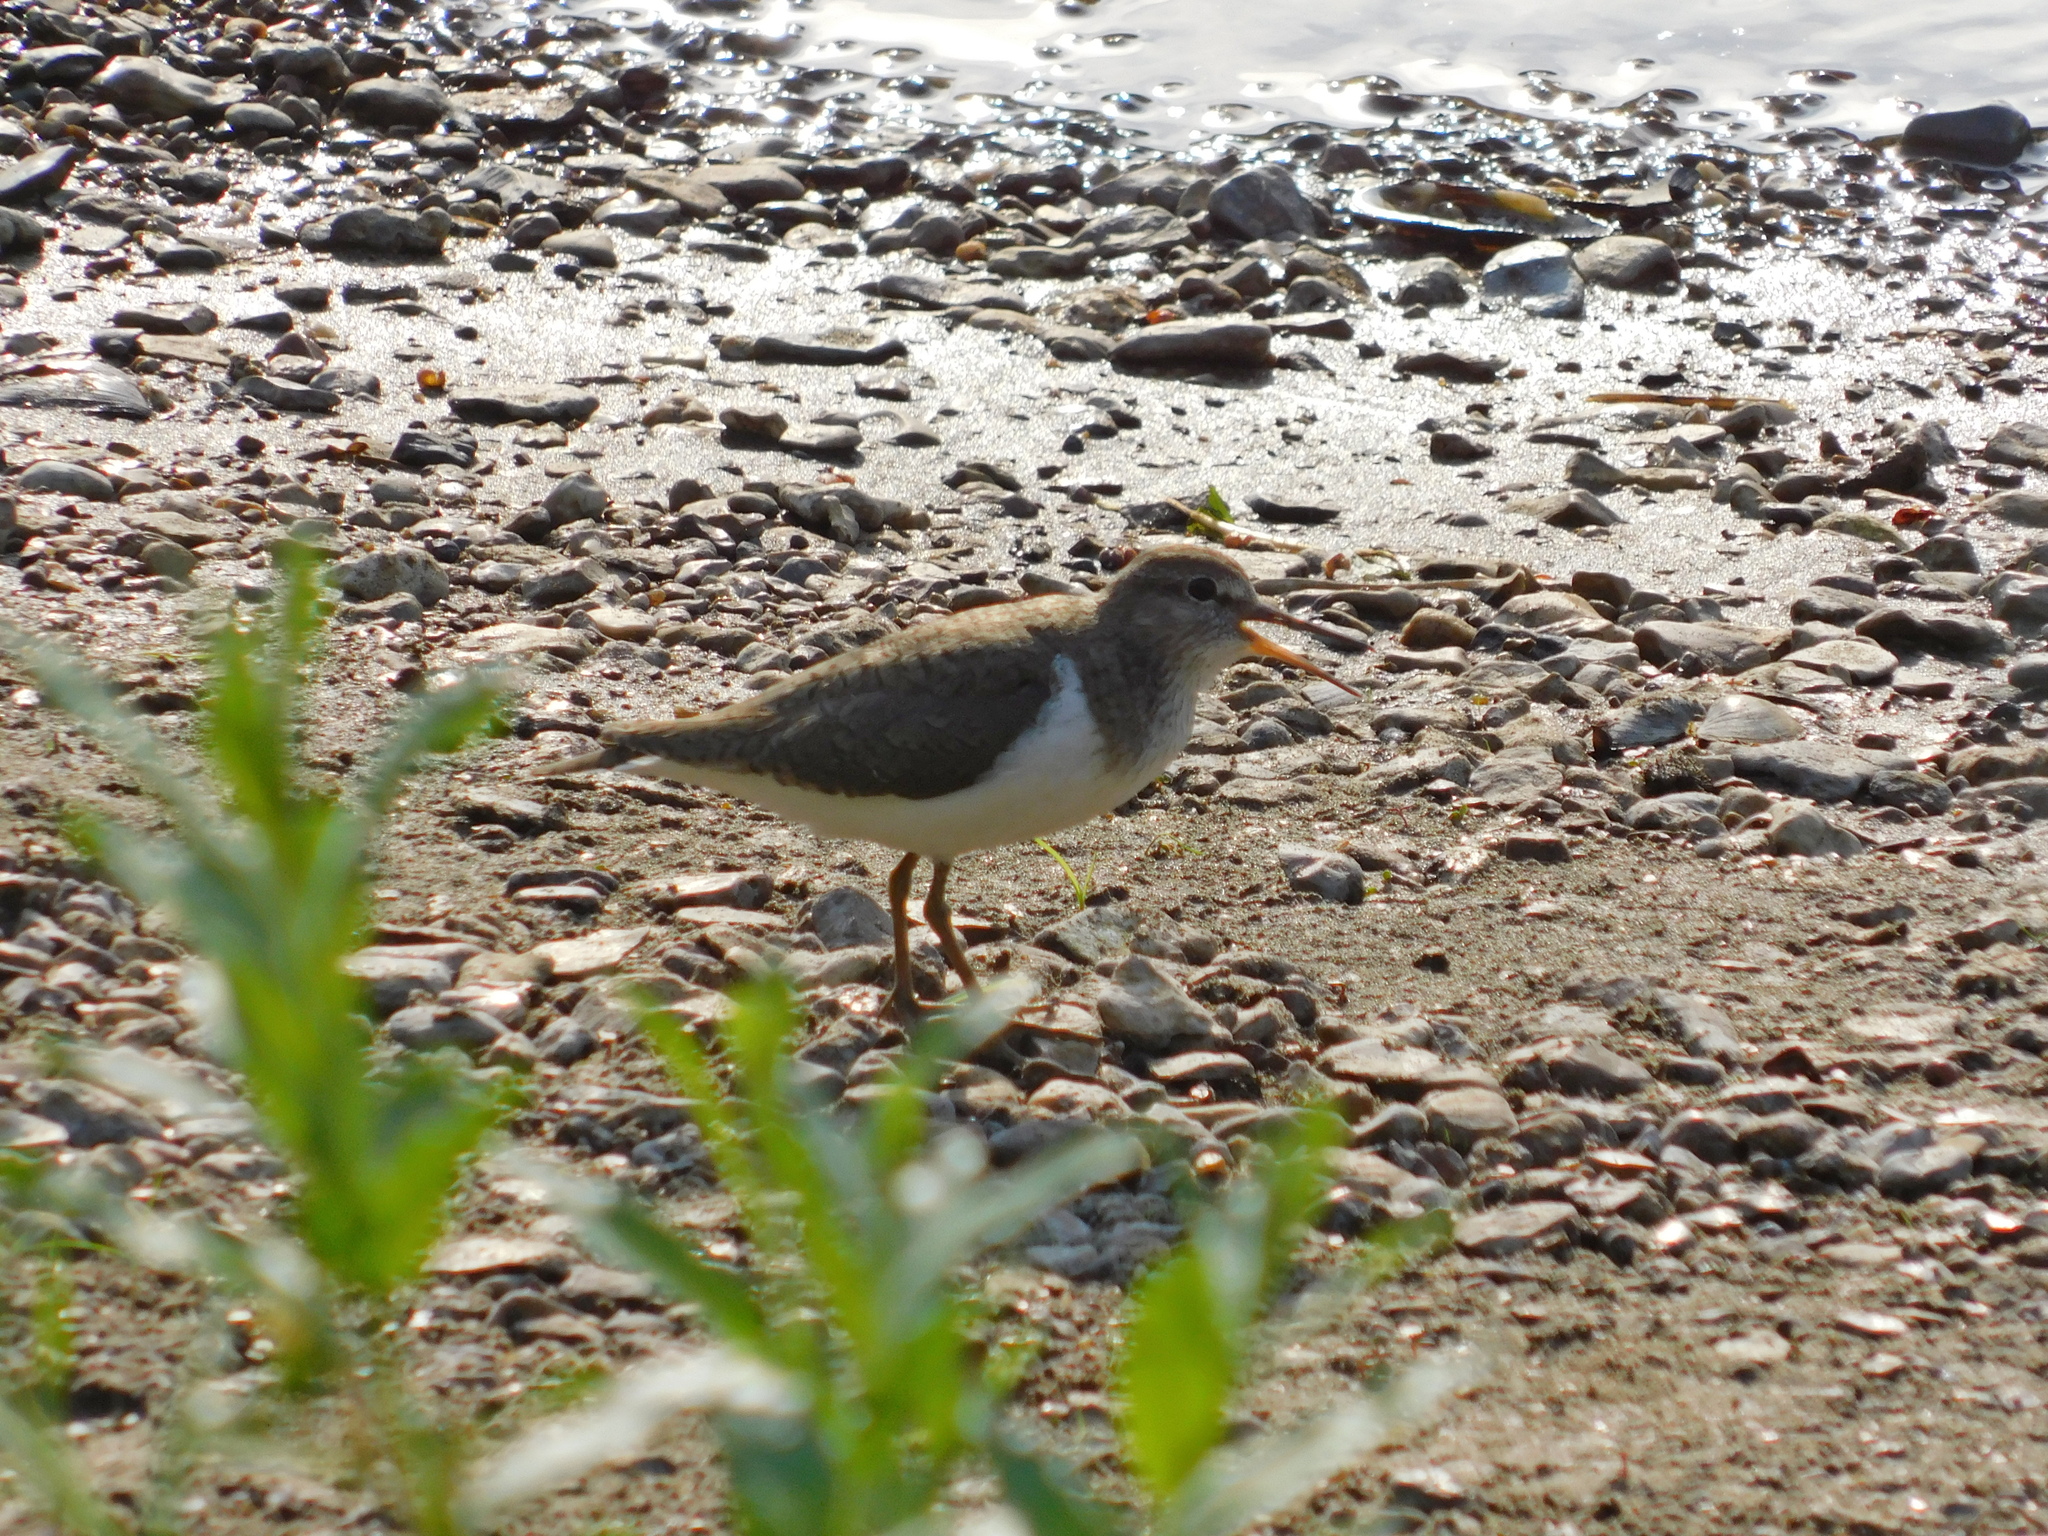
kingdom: Animalia
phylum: Chordata
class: Aves
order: Charadriiformes
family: Scolopacidae
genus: Actitis
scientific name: Actitis hypoleucos
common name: Common sandpiper
